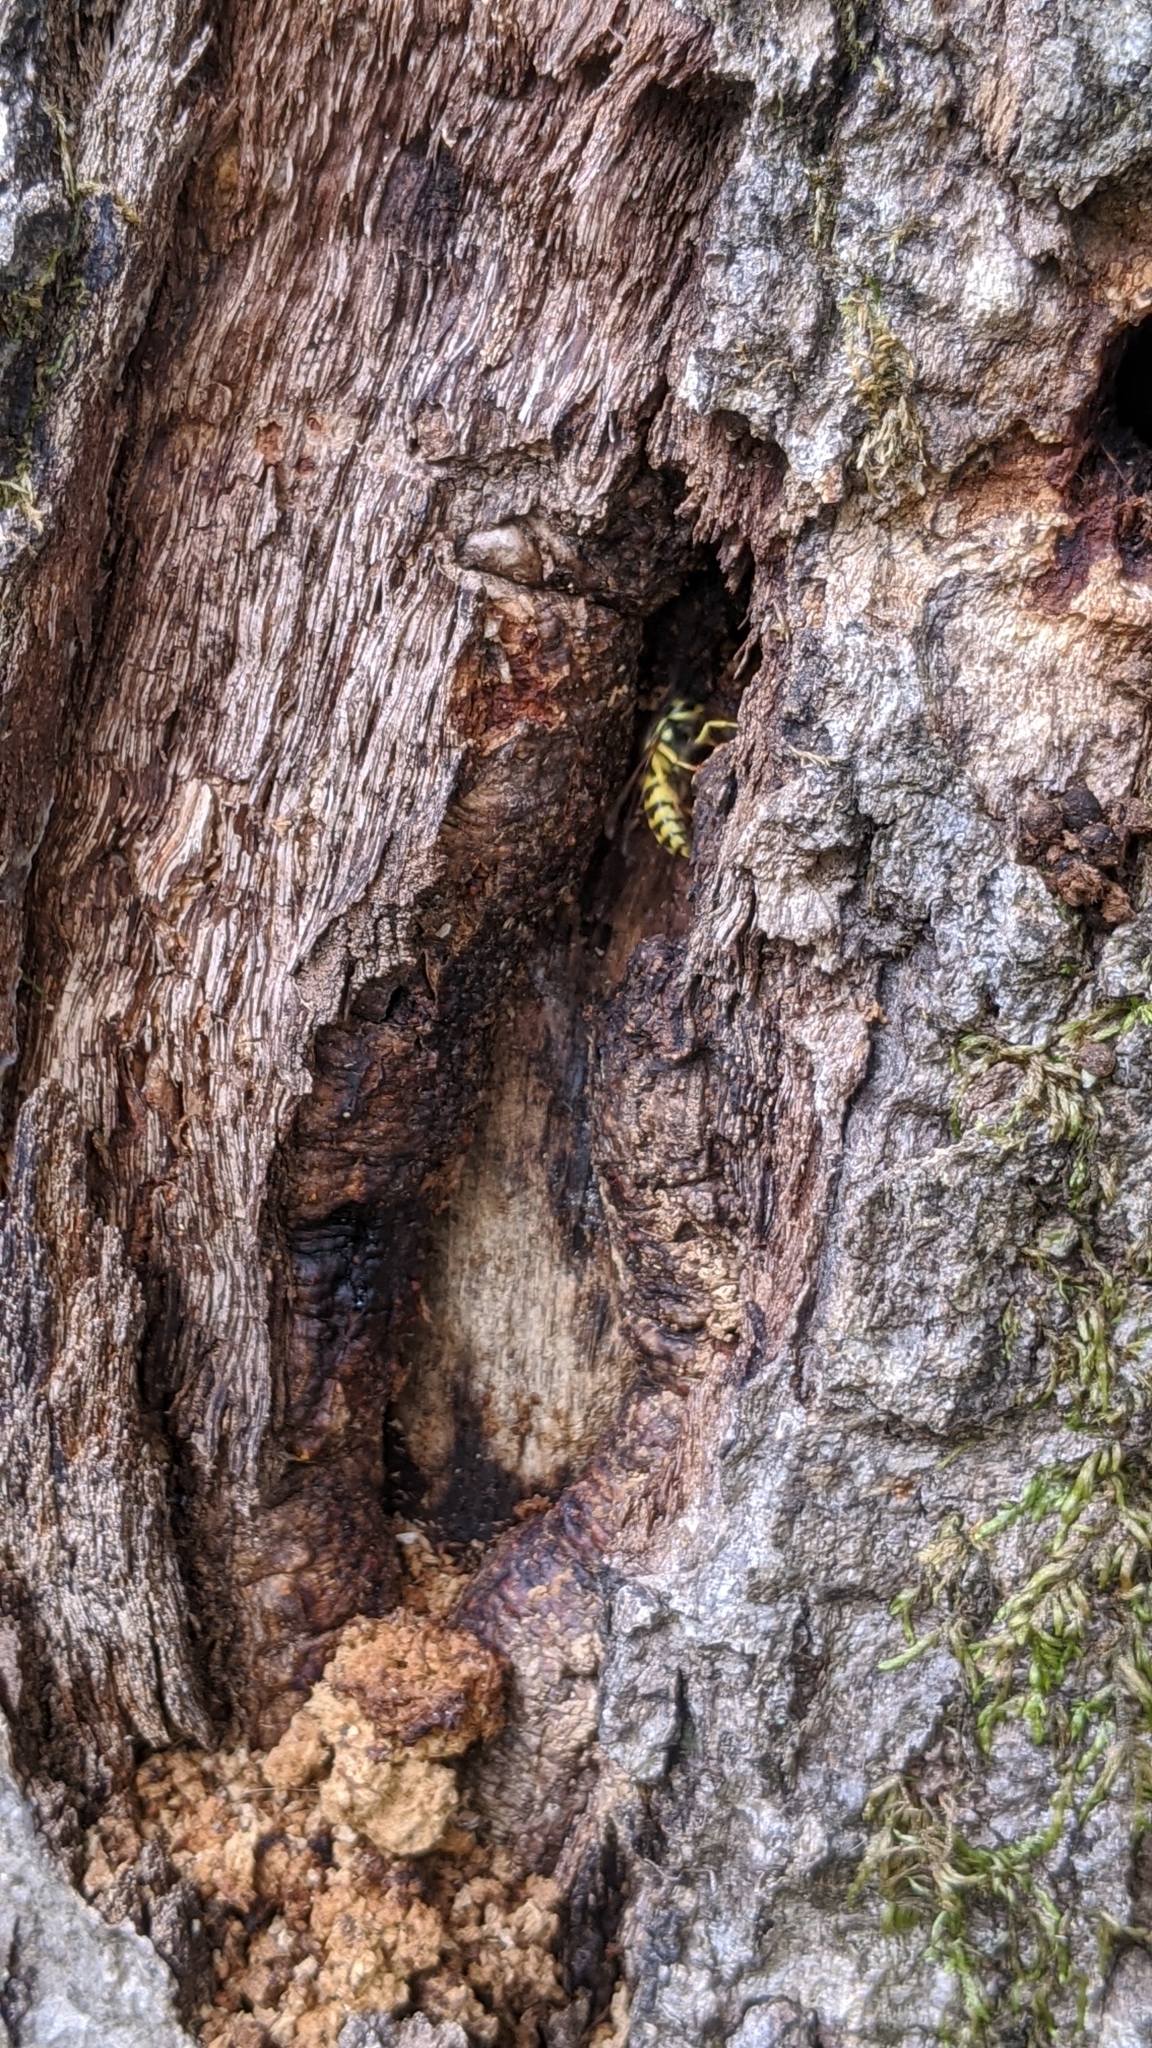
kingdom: Animalia
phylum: Arthropoda
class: Insecta
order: Hymenoptera
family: Vespidae
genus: Vespula
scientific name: Vespula
